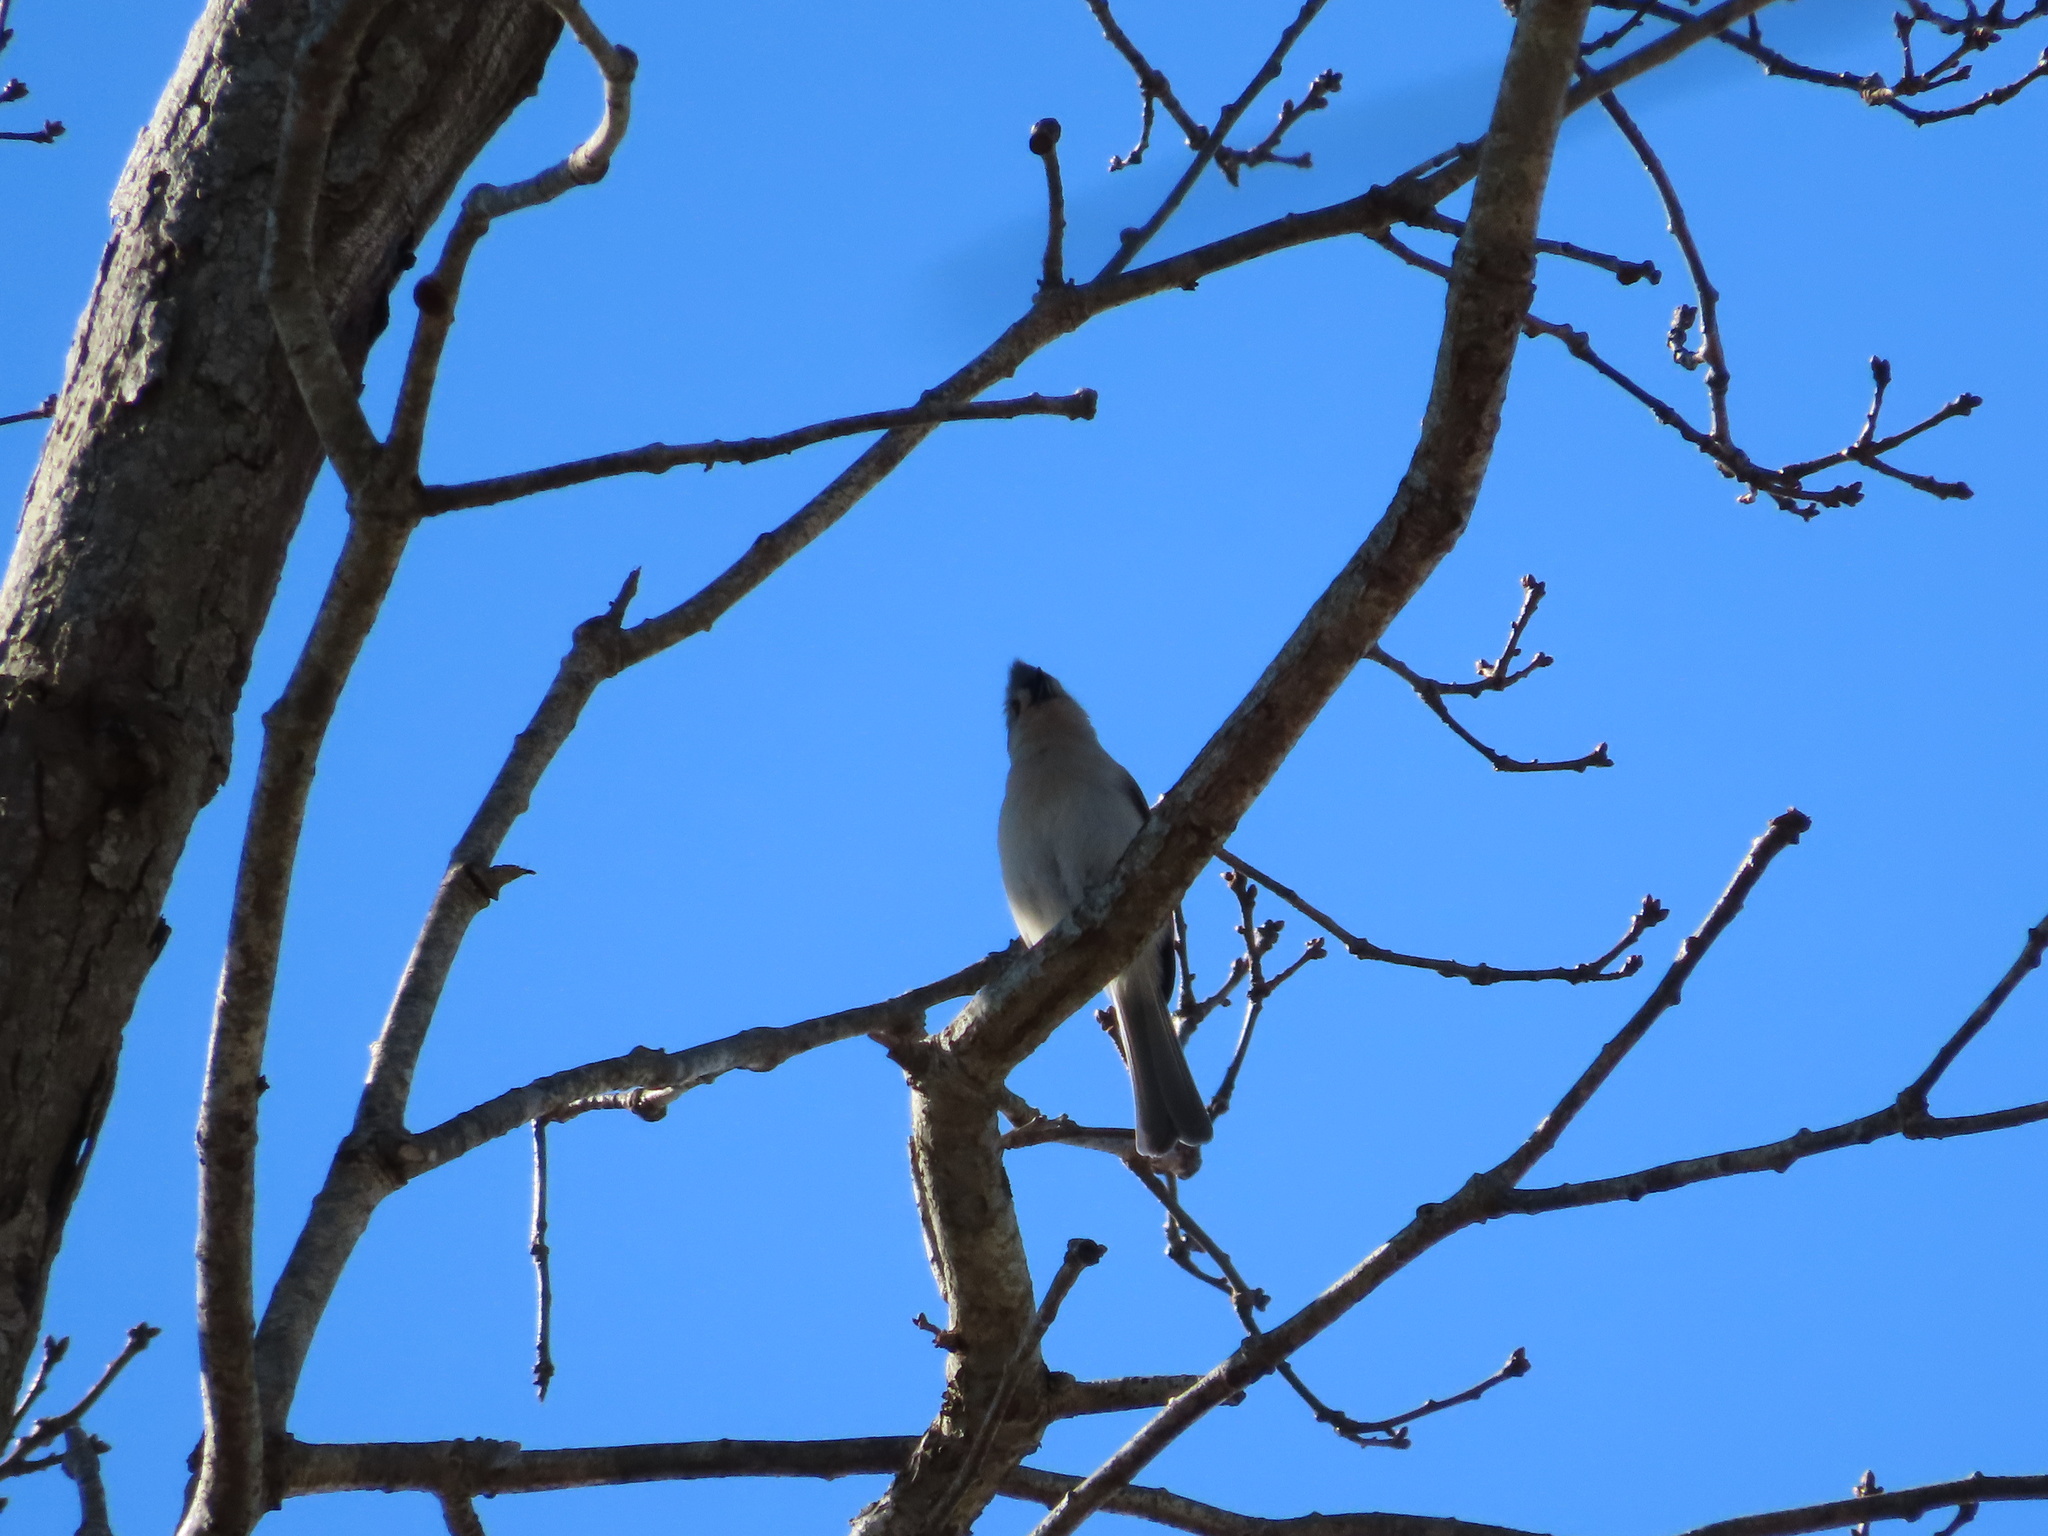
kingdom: Animalia
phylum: Chordata
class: Aves
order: Passeriformes
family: Paridae
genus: Baeolophus
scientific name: Baeolophus bicolor
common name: Tufted titmouse
